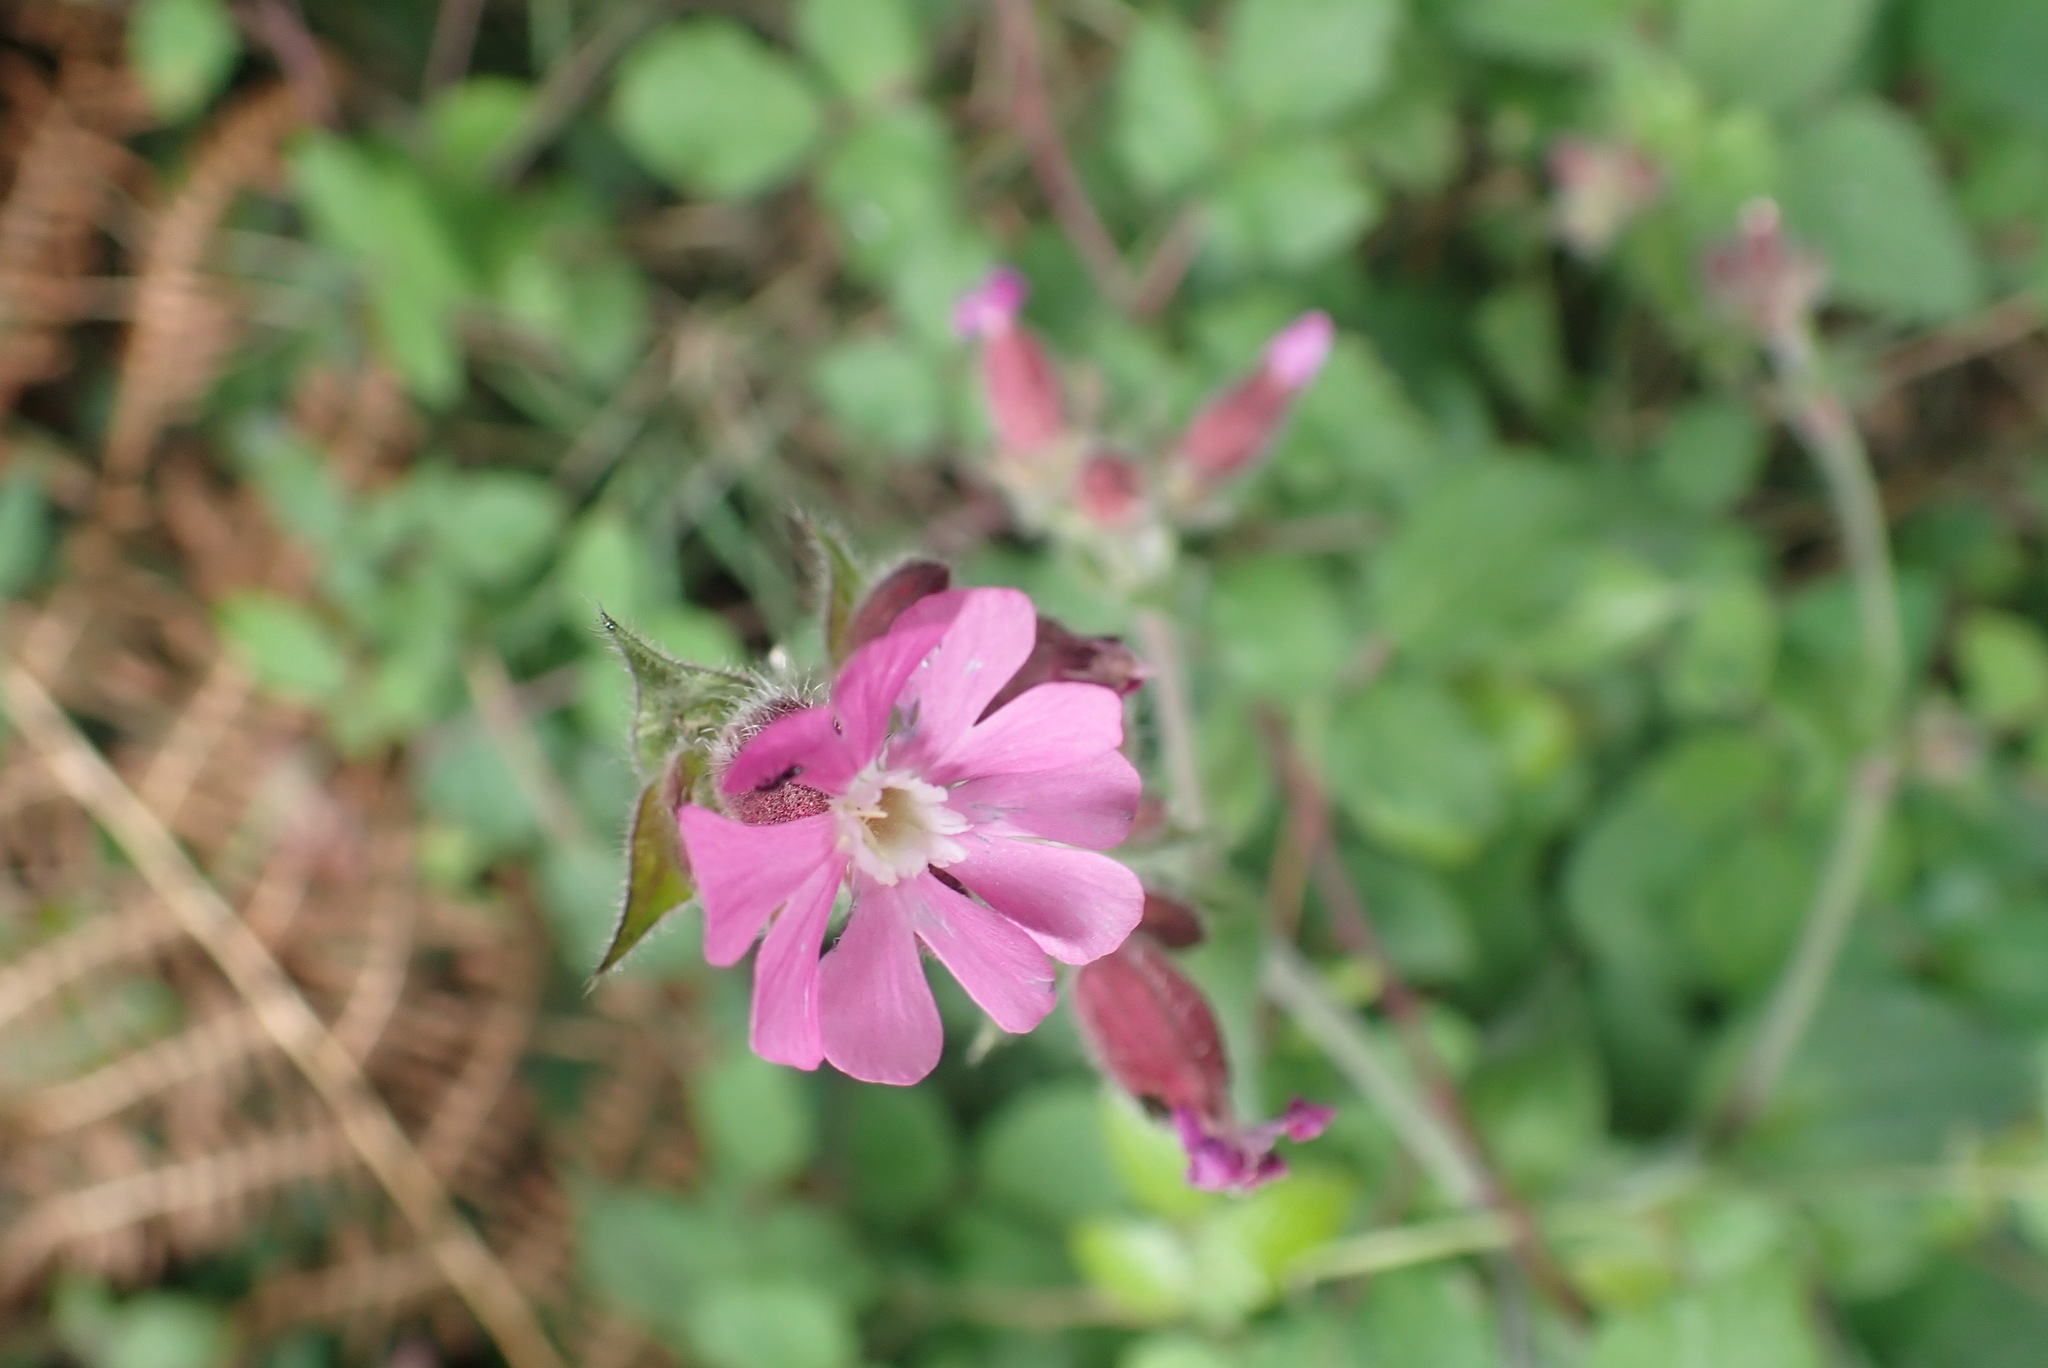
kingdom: Plantae
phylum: Tracheophyta
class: Magnoliopsida
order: Caryophyllales
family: Caryophyllaceae
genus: Silene
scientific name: Silene dioica
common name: Red campion
